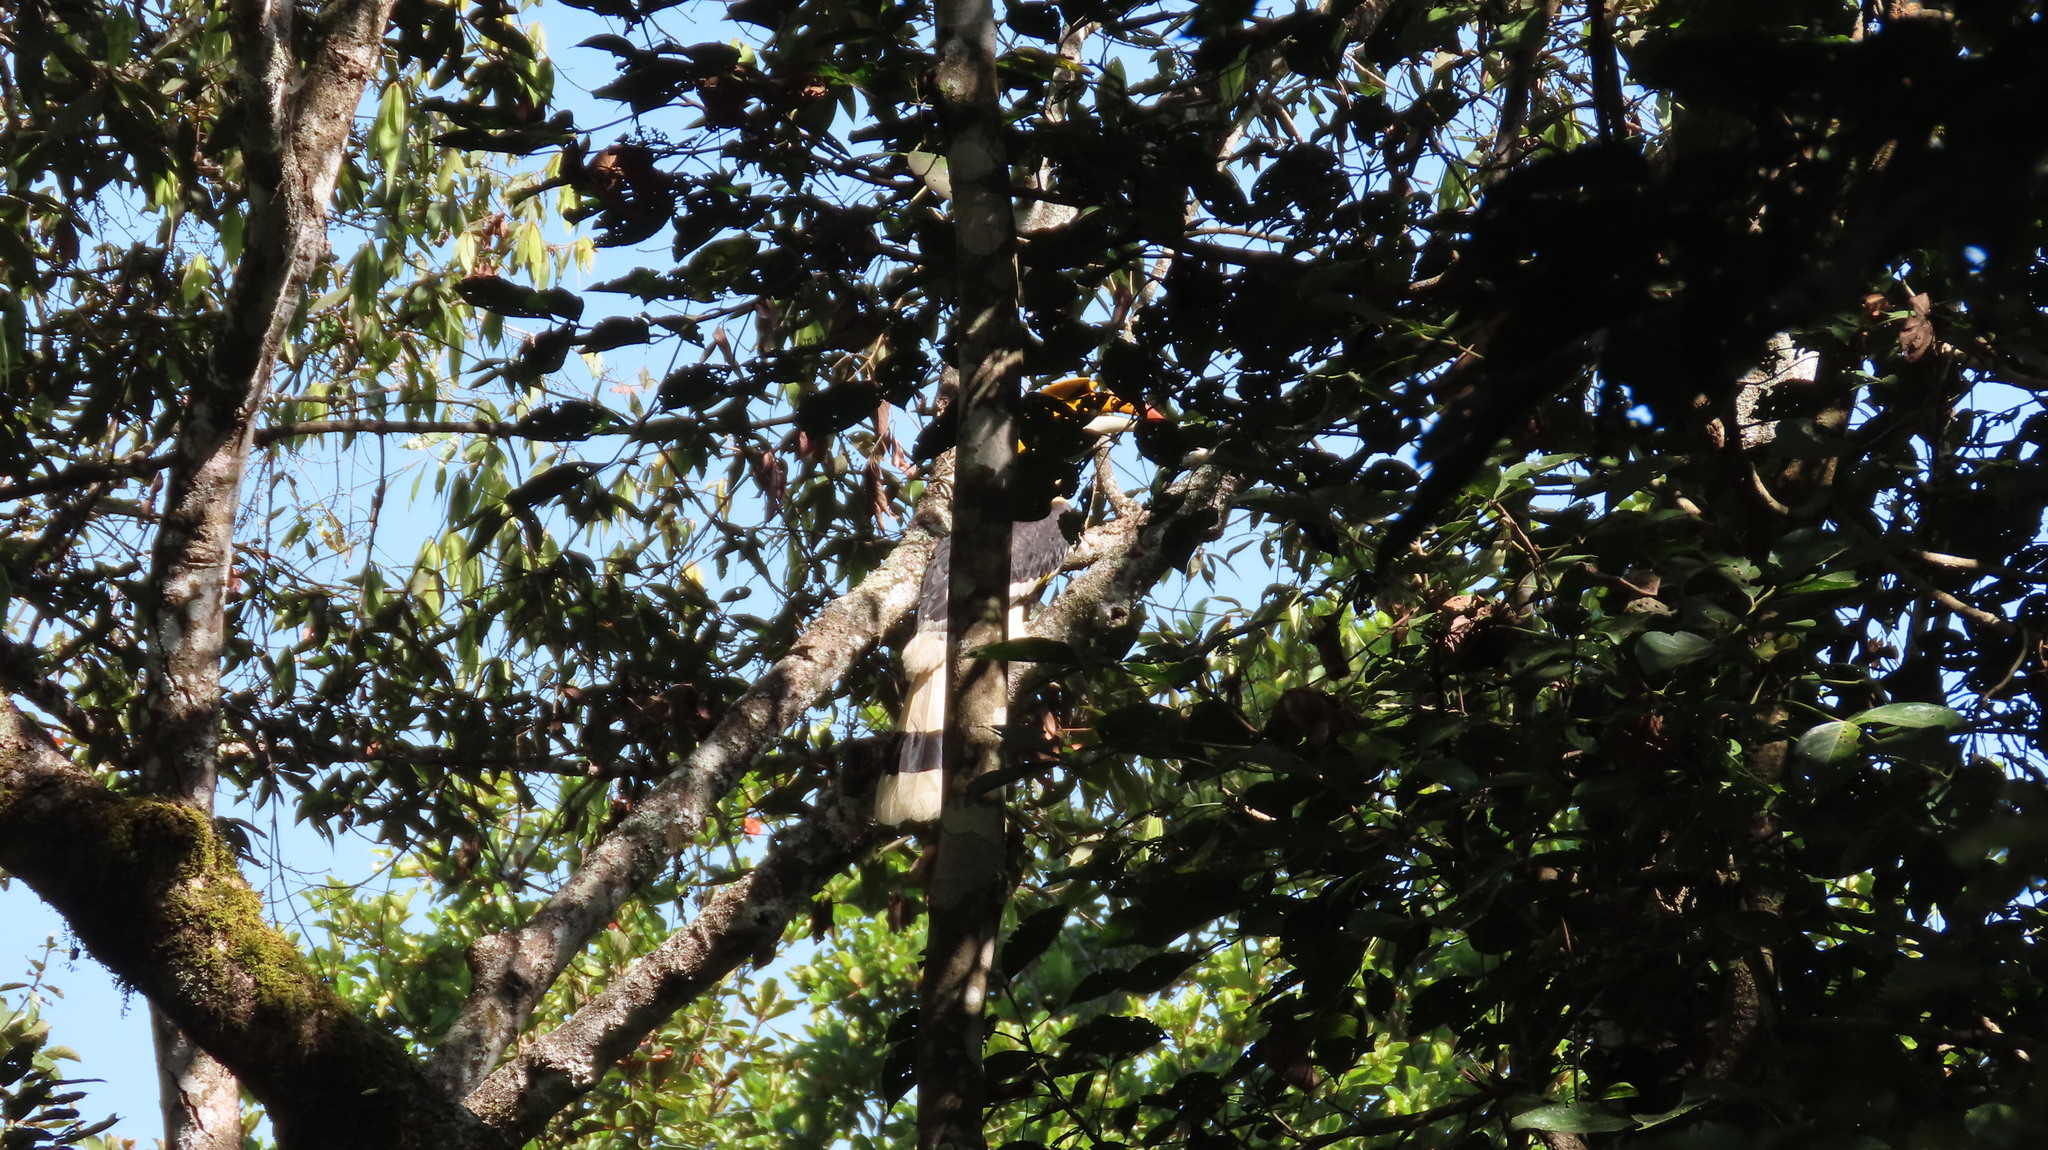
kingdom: Animalia
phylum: Chordata
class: Aves
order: Bucerotiformes
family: Bucerotidae
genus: Buceros
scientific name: Buceros bicornis
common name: Great hornbill
